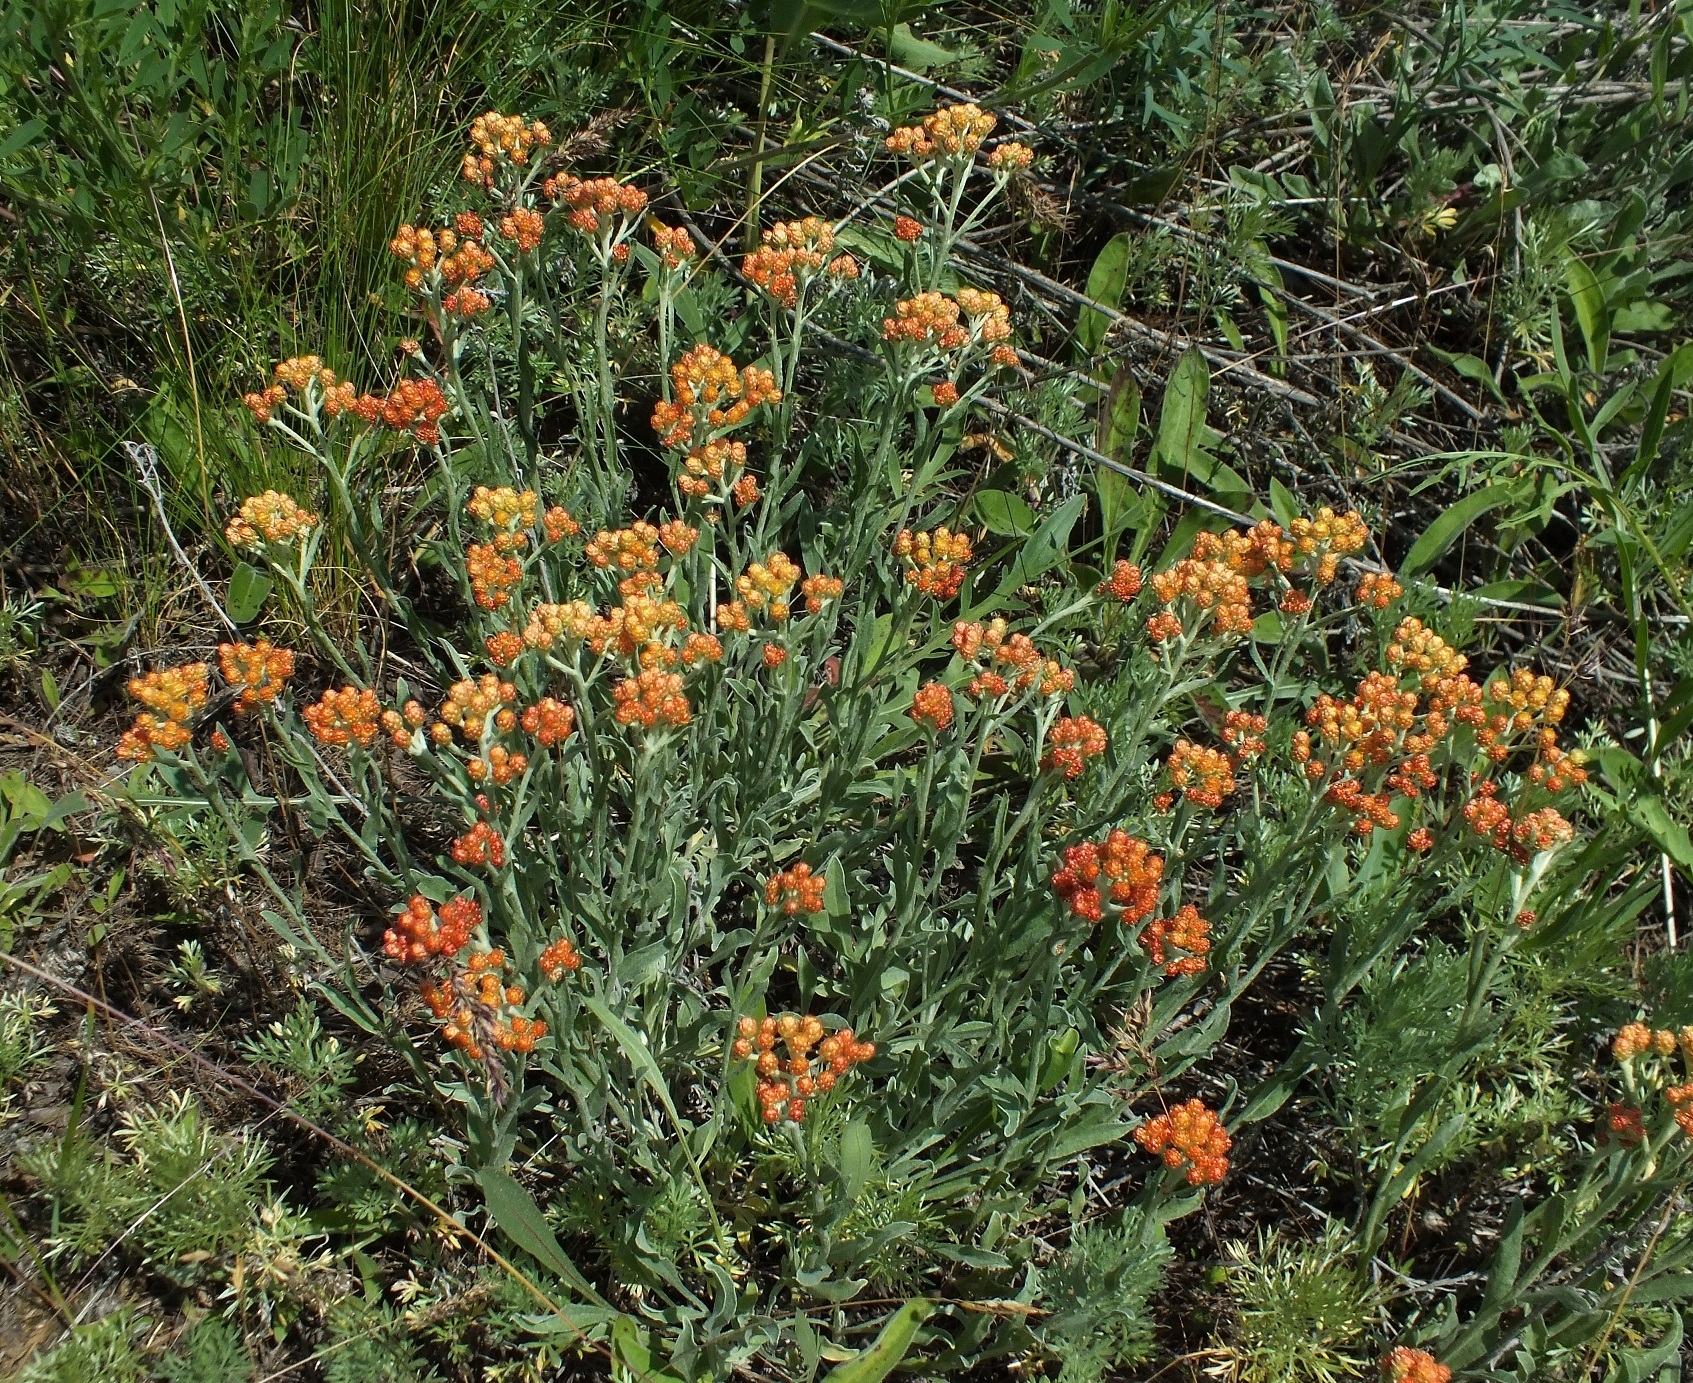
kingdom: Plantae
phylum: Tracheophyta
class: Magnoliopsida
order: Asterales
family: Asteraceae
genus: Helichrysum
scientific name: Helichrysum arenarium
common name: Strawflower
